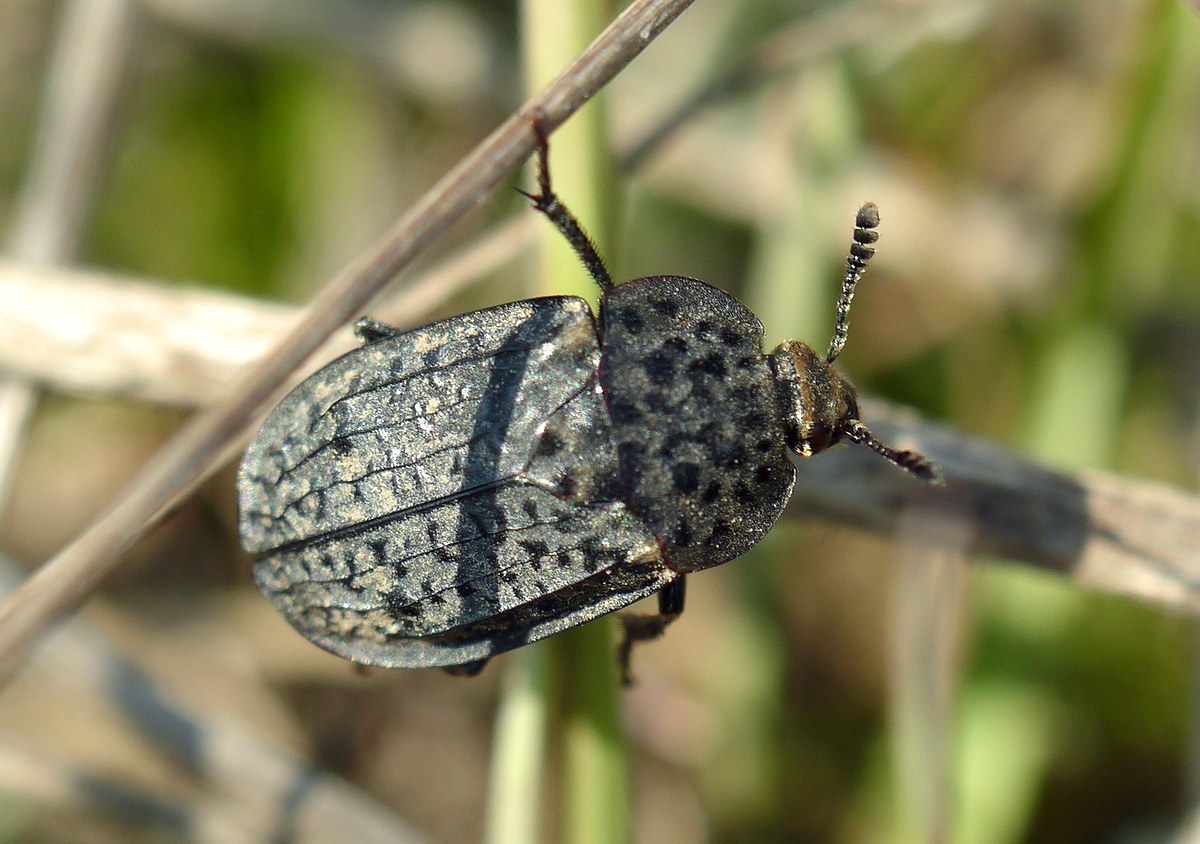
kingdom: Animalia
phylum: Arthropoda
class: Insecta
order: Coleoptera
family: Staphylinidae
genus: Thanatophilus
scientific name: Thanatophilus rugosus
